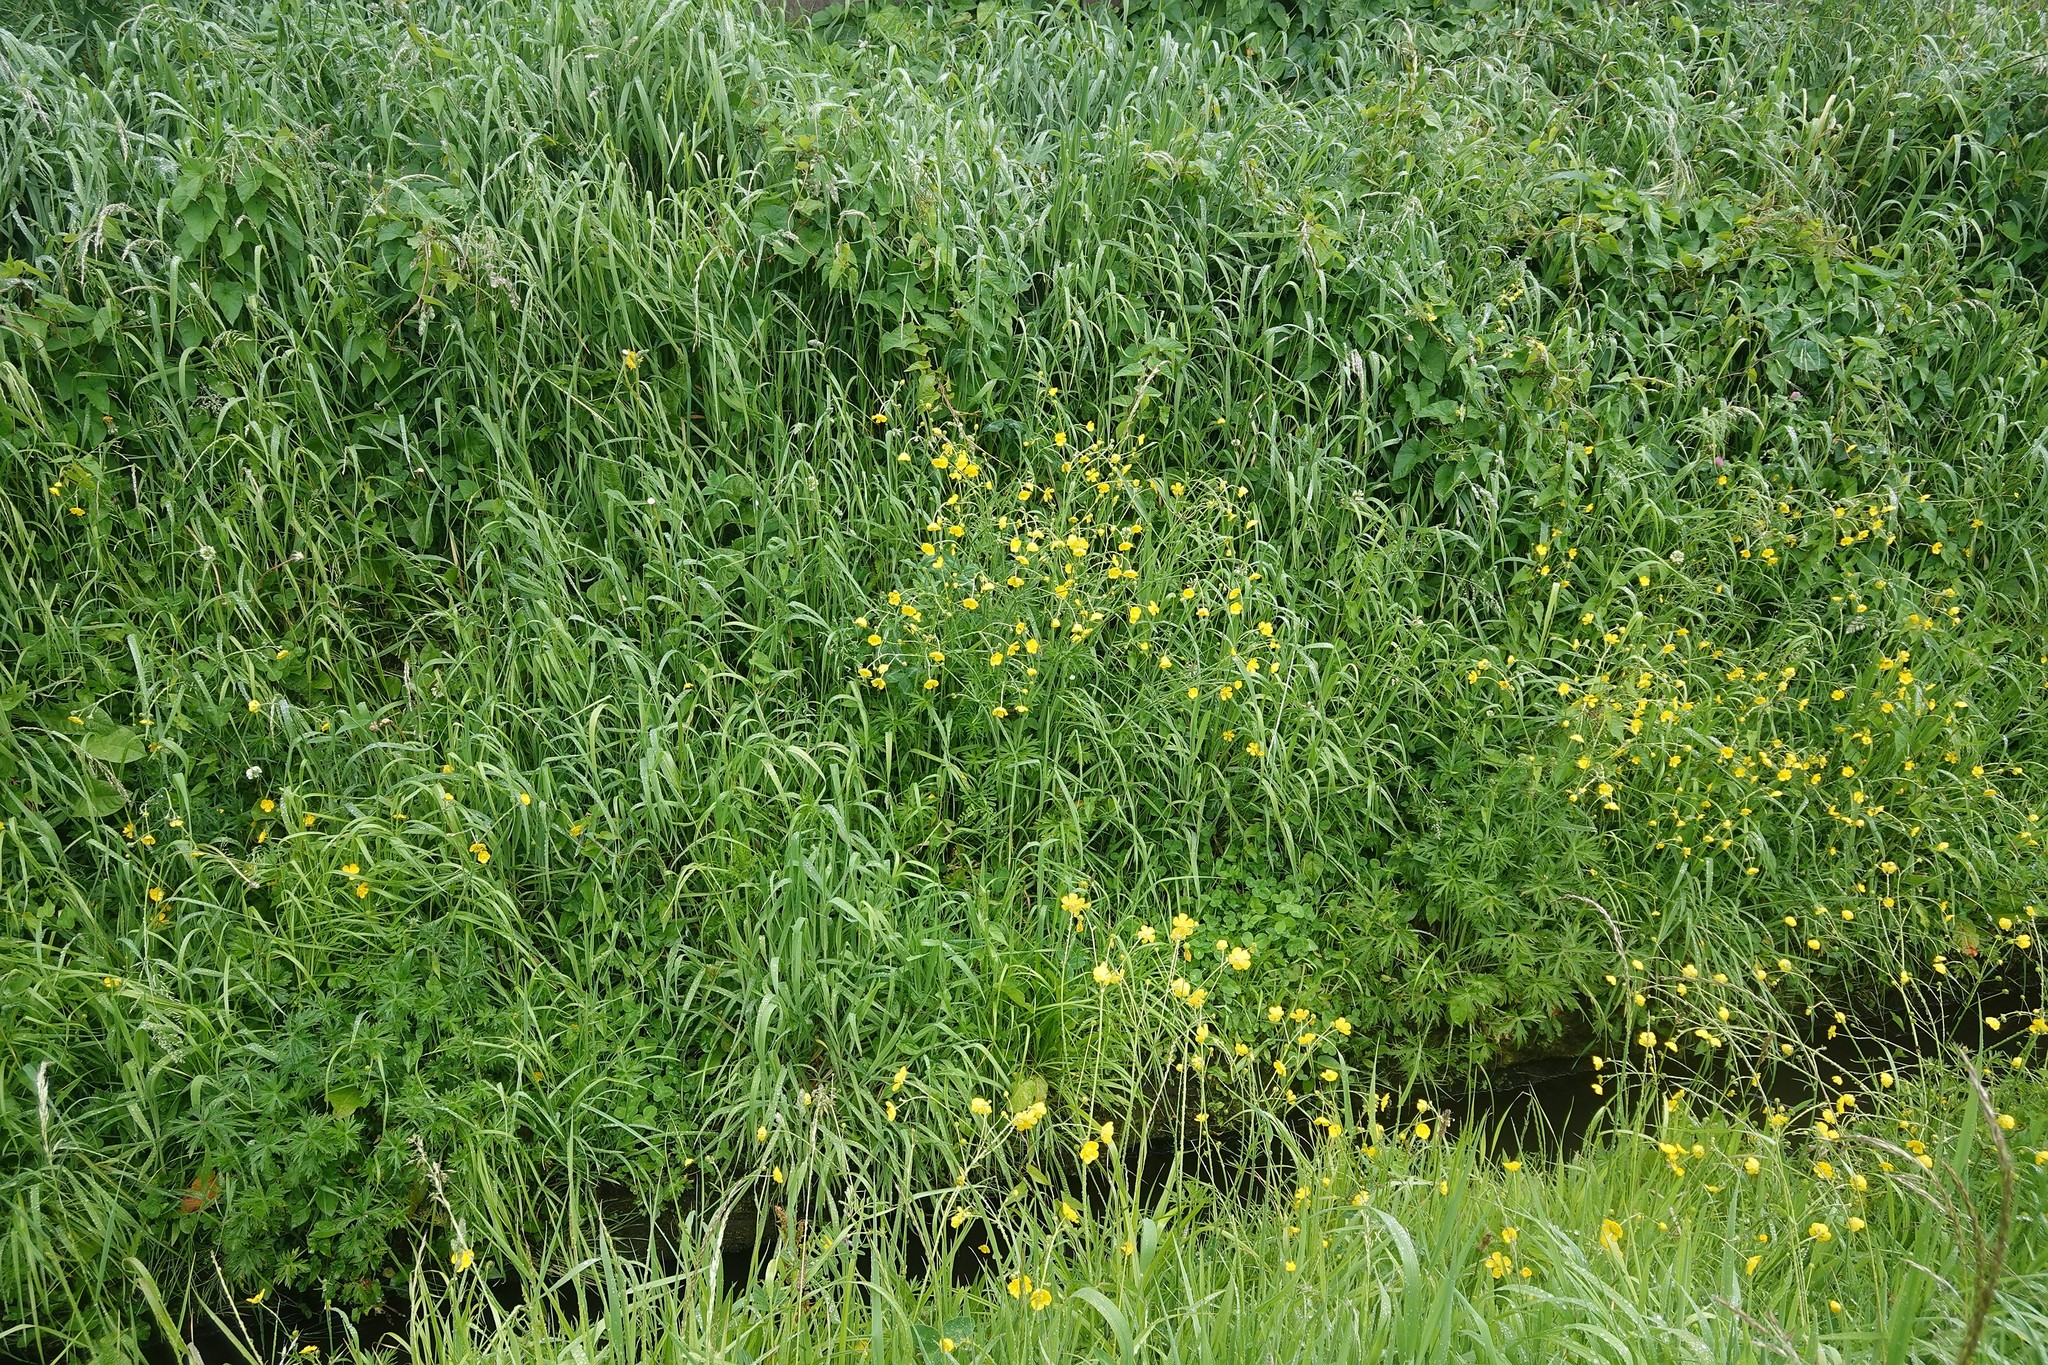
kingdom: Plantae
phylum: Tracheophyta
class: Magnoliopsida
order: Ranunculales
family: Ranunculaceae
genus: Ranunculus
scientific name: Ranunculus acris
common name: Meadow buttercup
